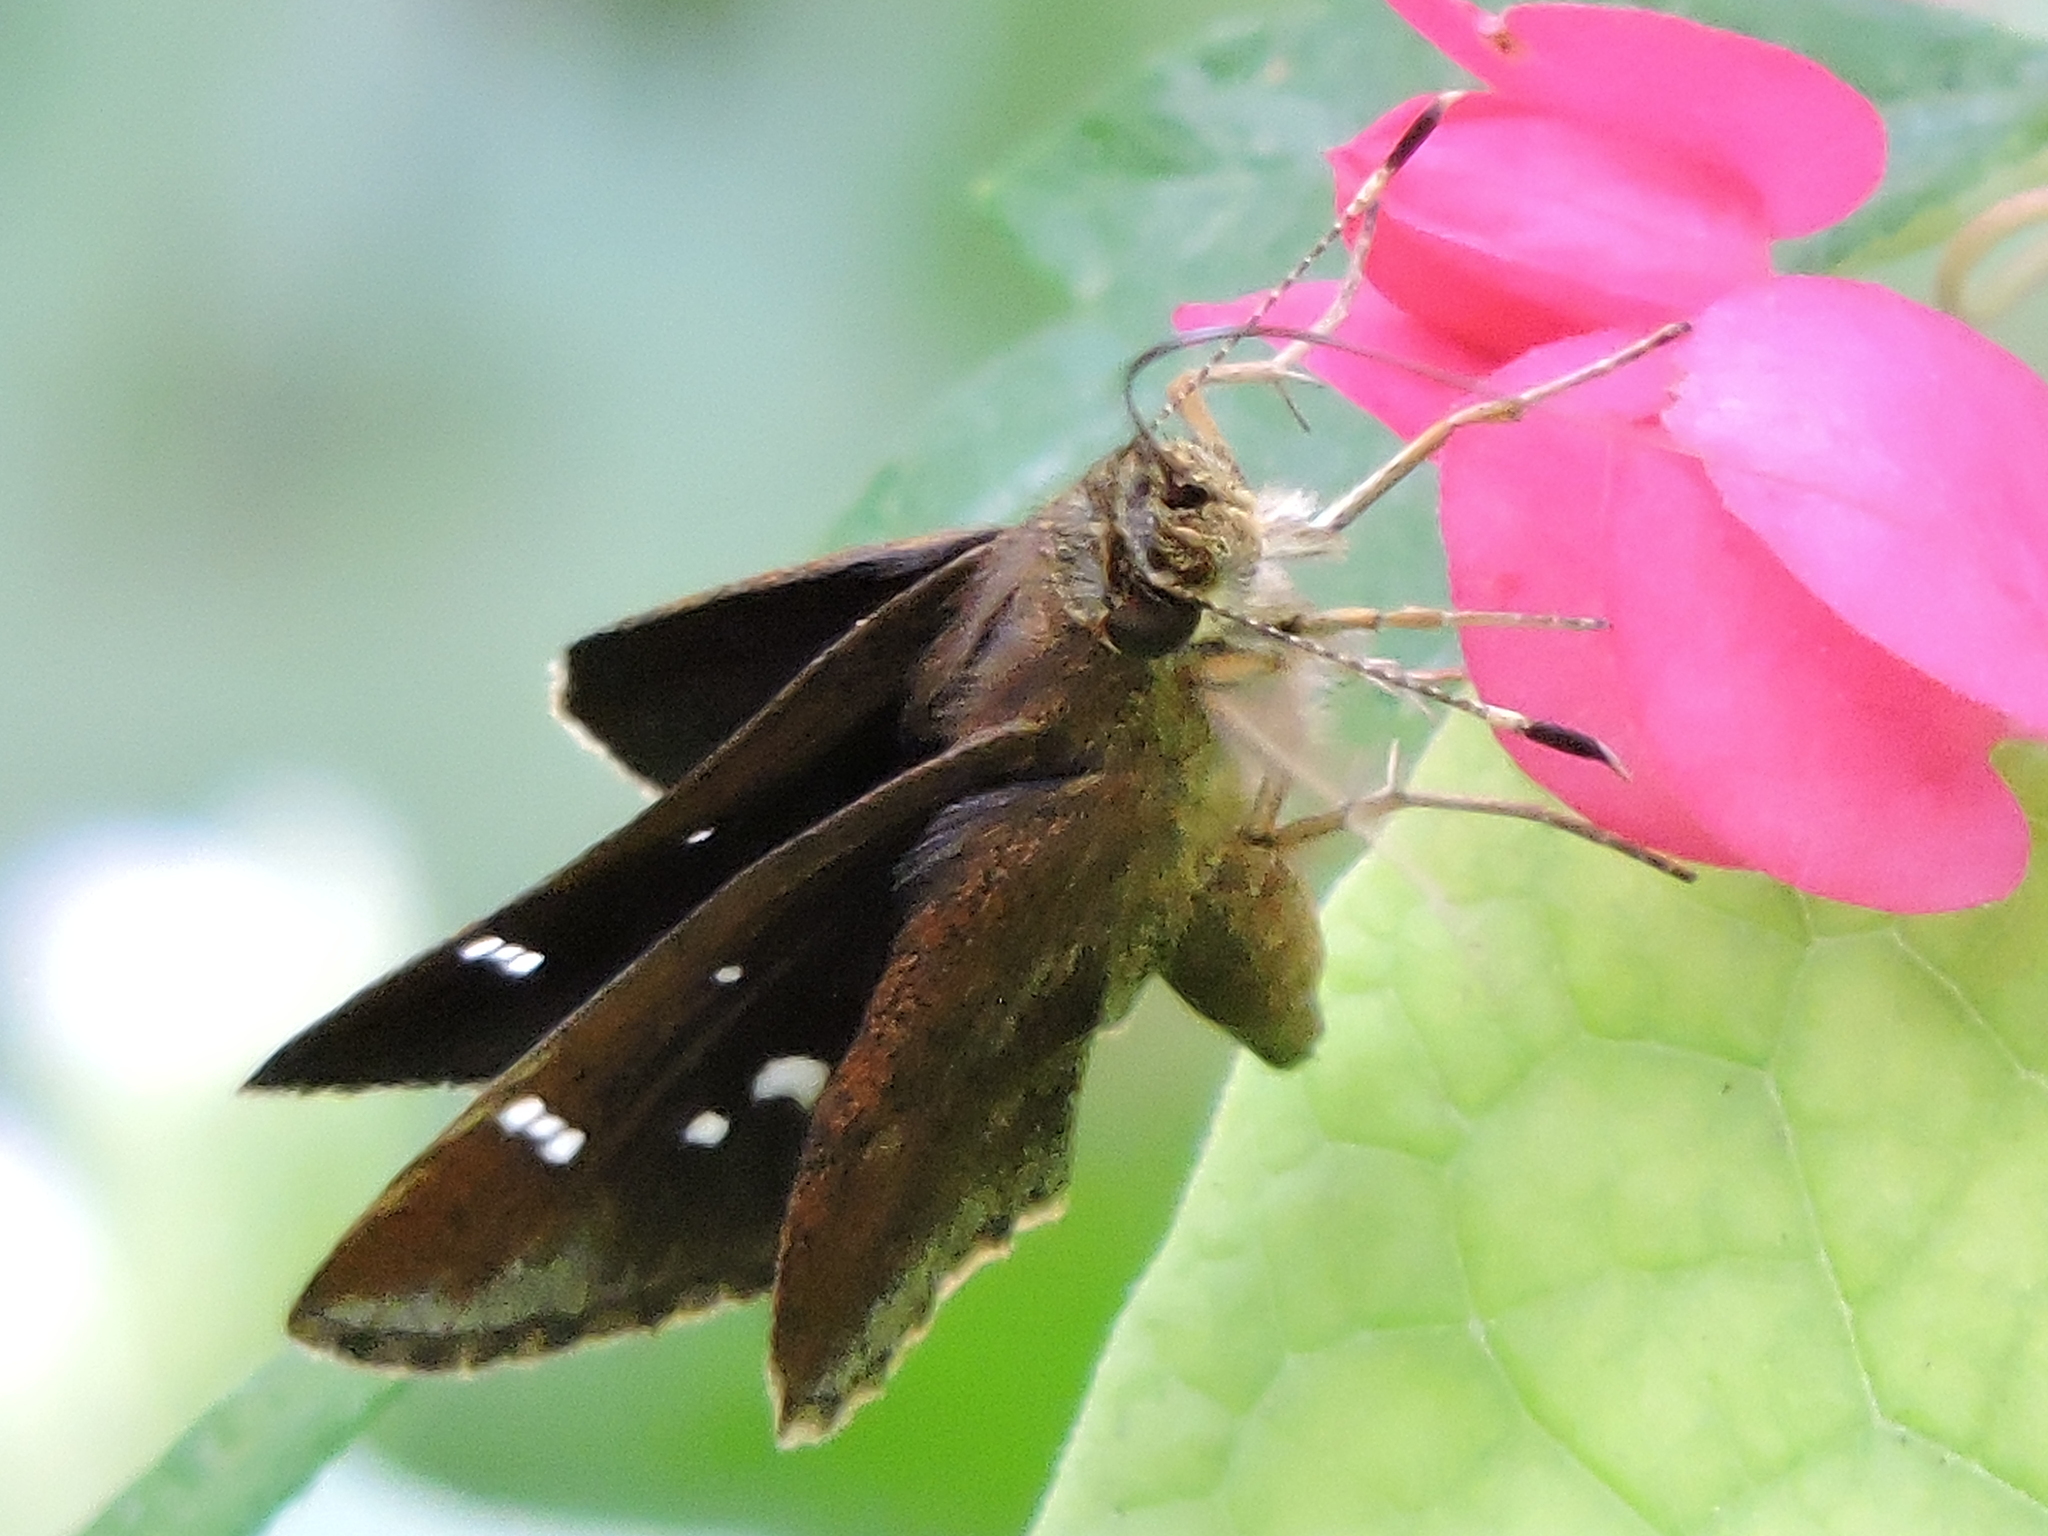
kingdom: Animalia
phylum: Arthropoda
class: Insecta
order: Lepidoptera
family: Hesperiidae
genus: Lerema
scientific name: Lerema accius
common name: Clouded skipper
